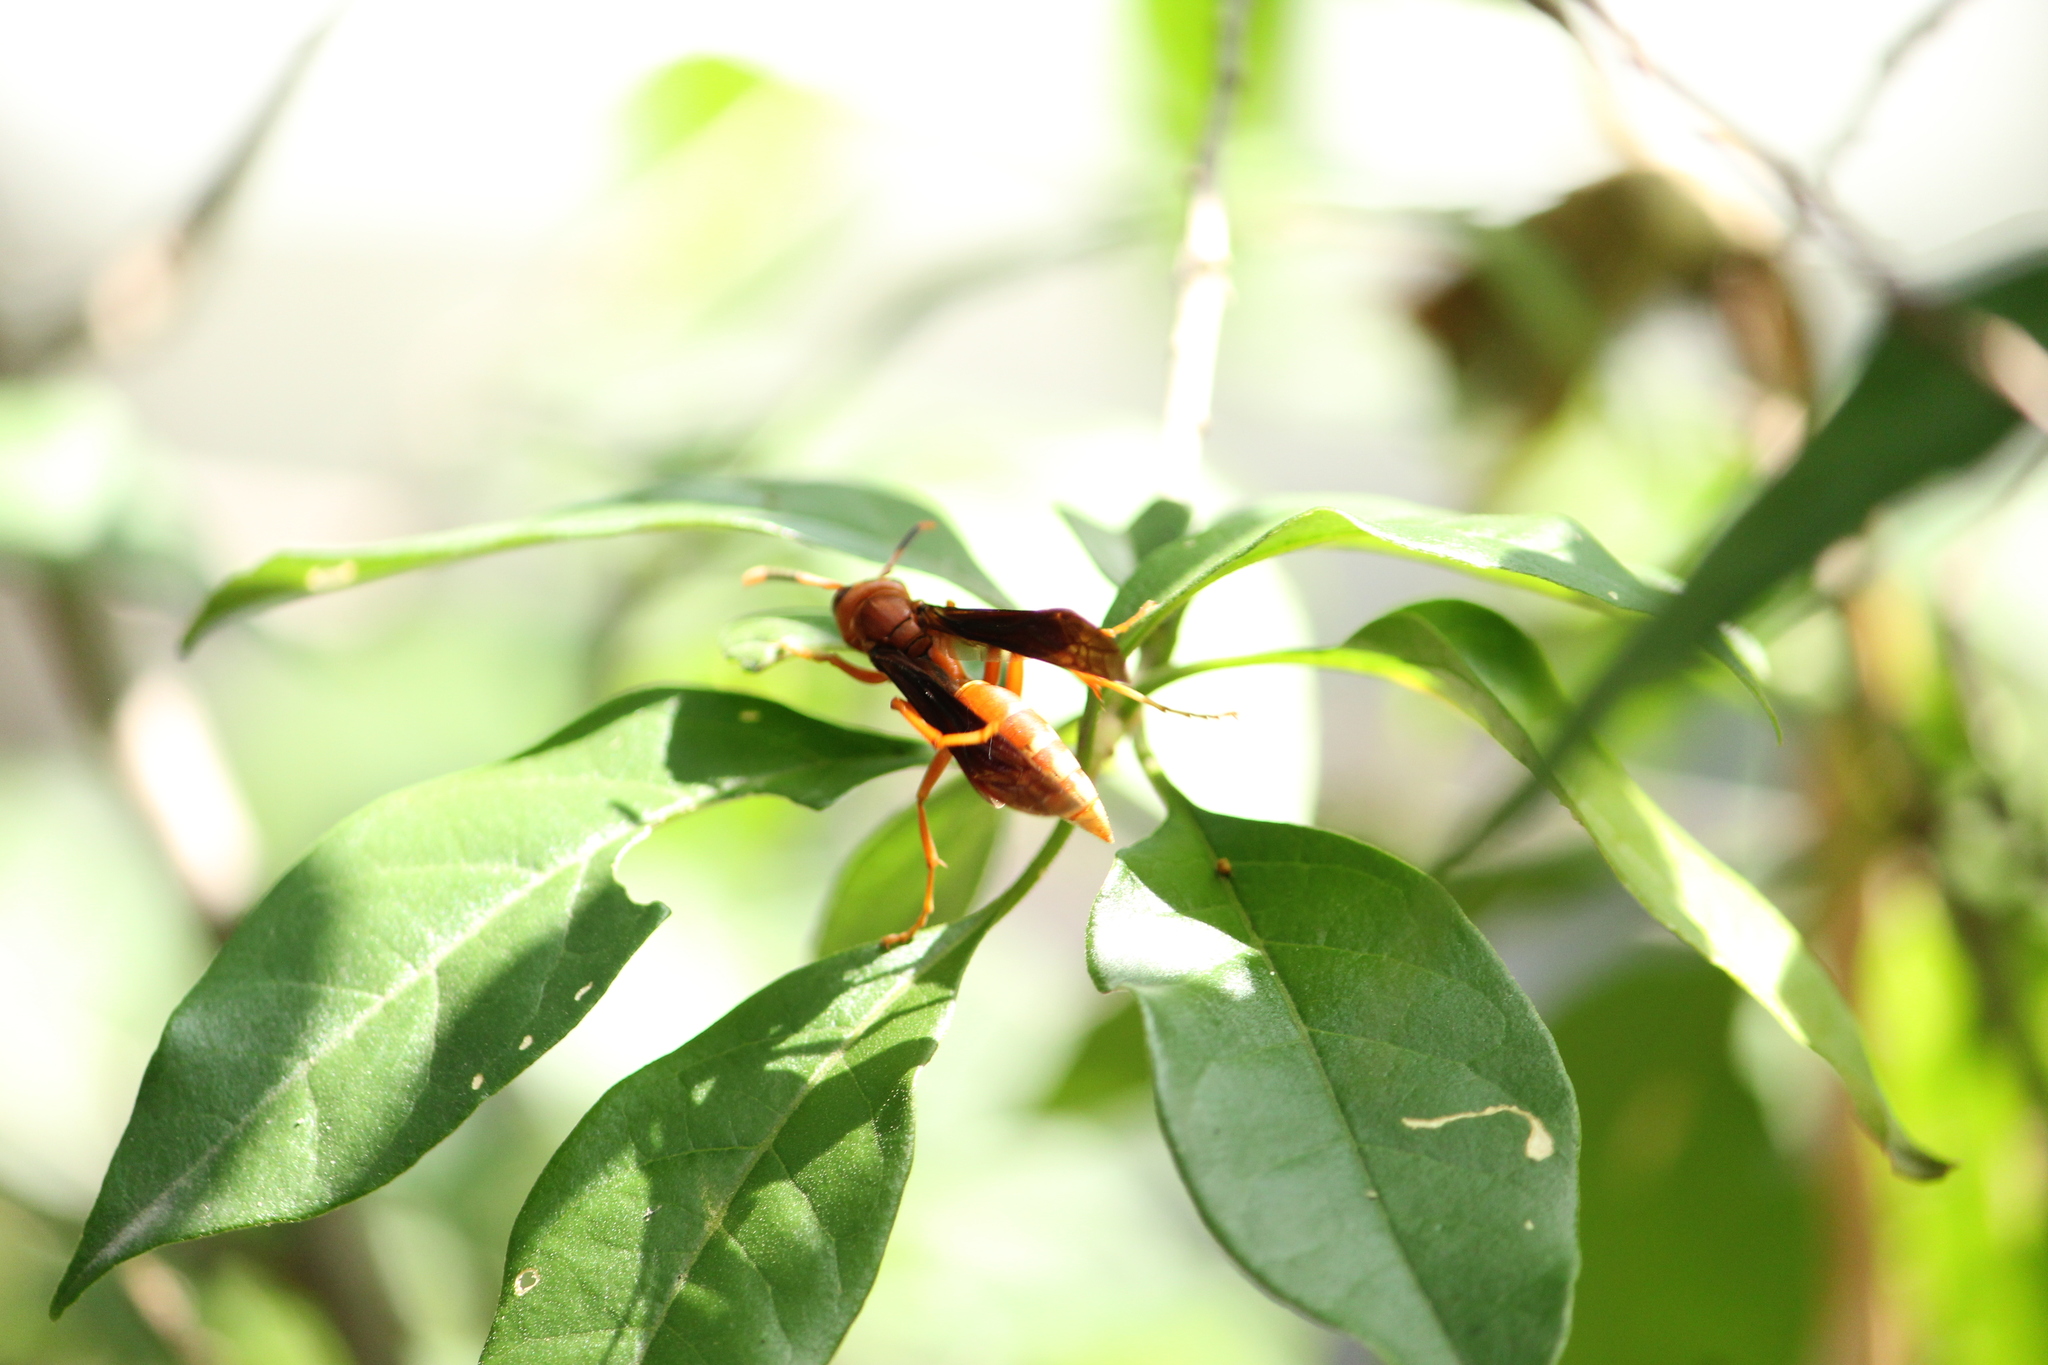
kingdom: Animalia
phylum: Arthropoda
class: Insecta
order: Hymenoptera
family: Eumenidae
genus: Polistes
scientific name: Polistes mexicanus
